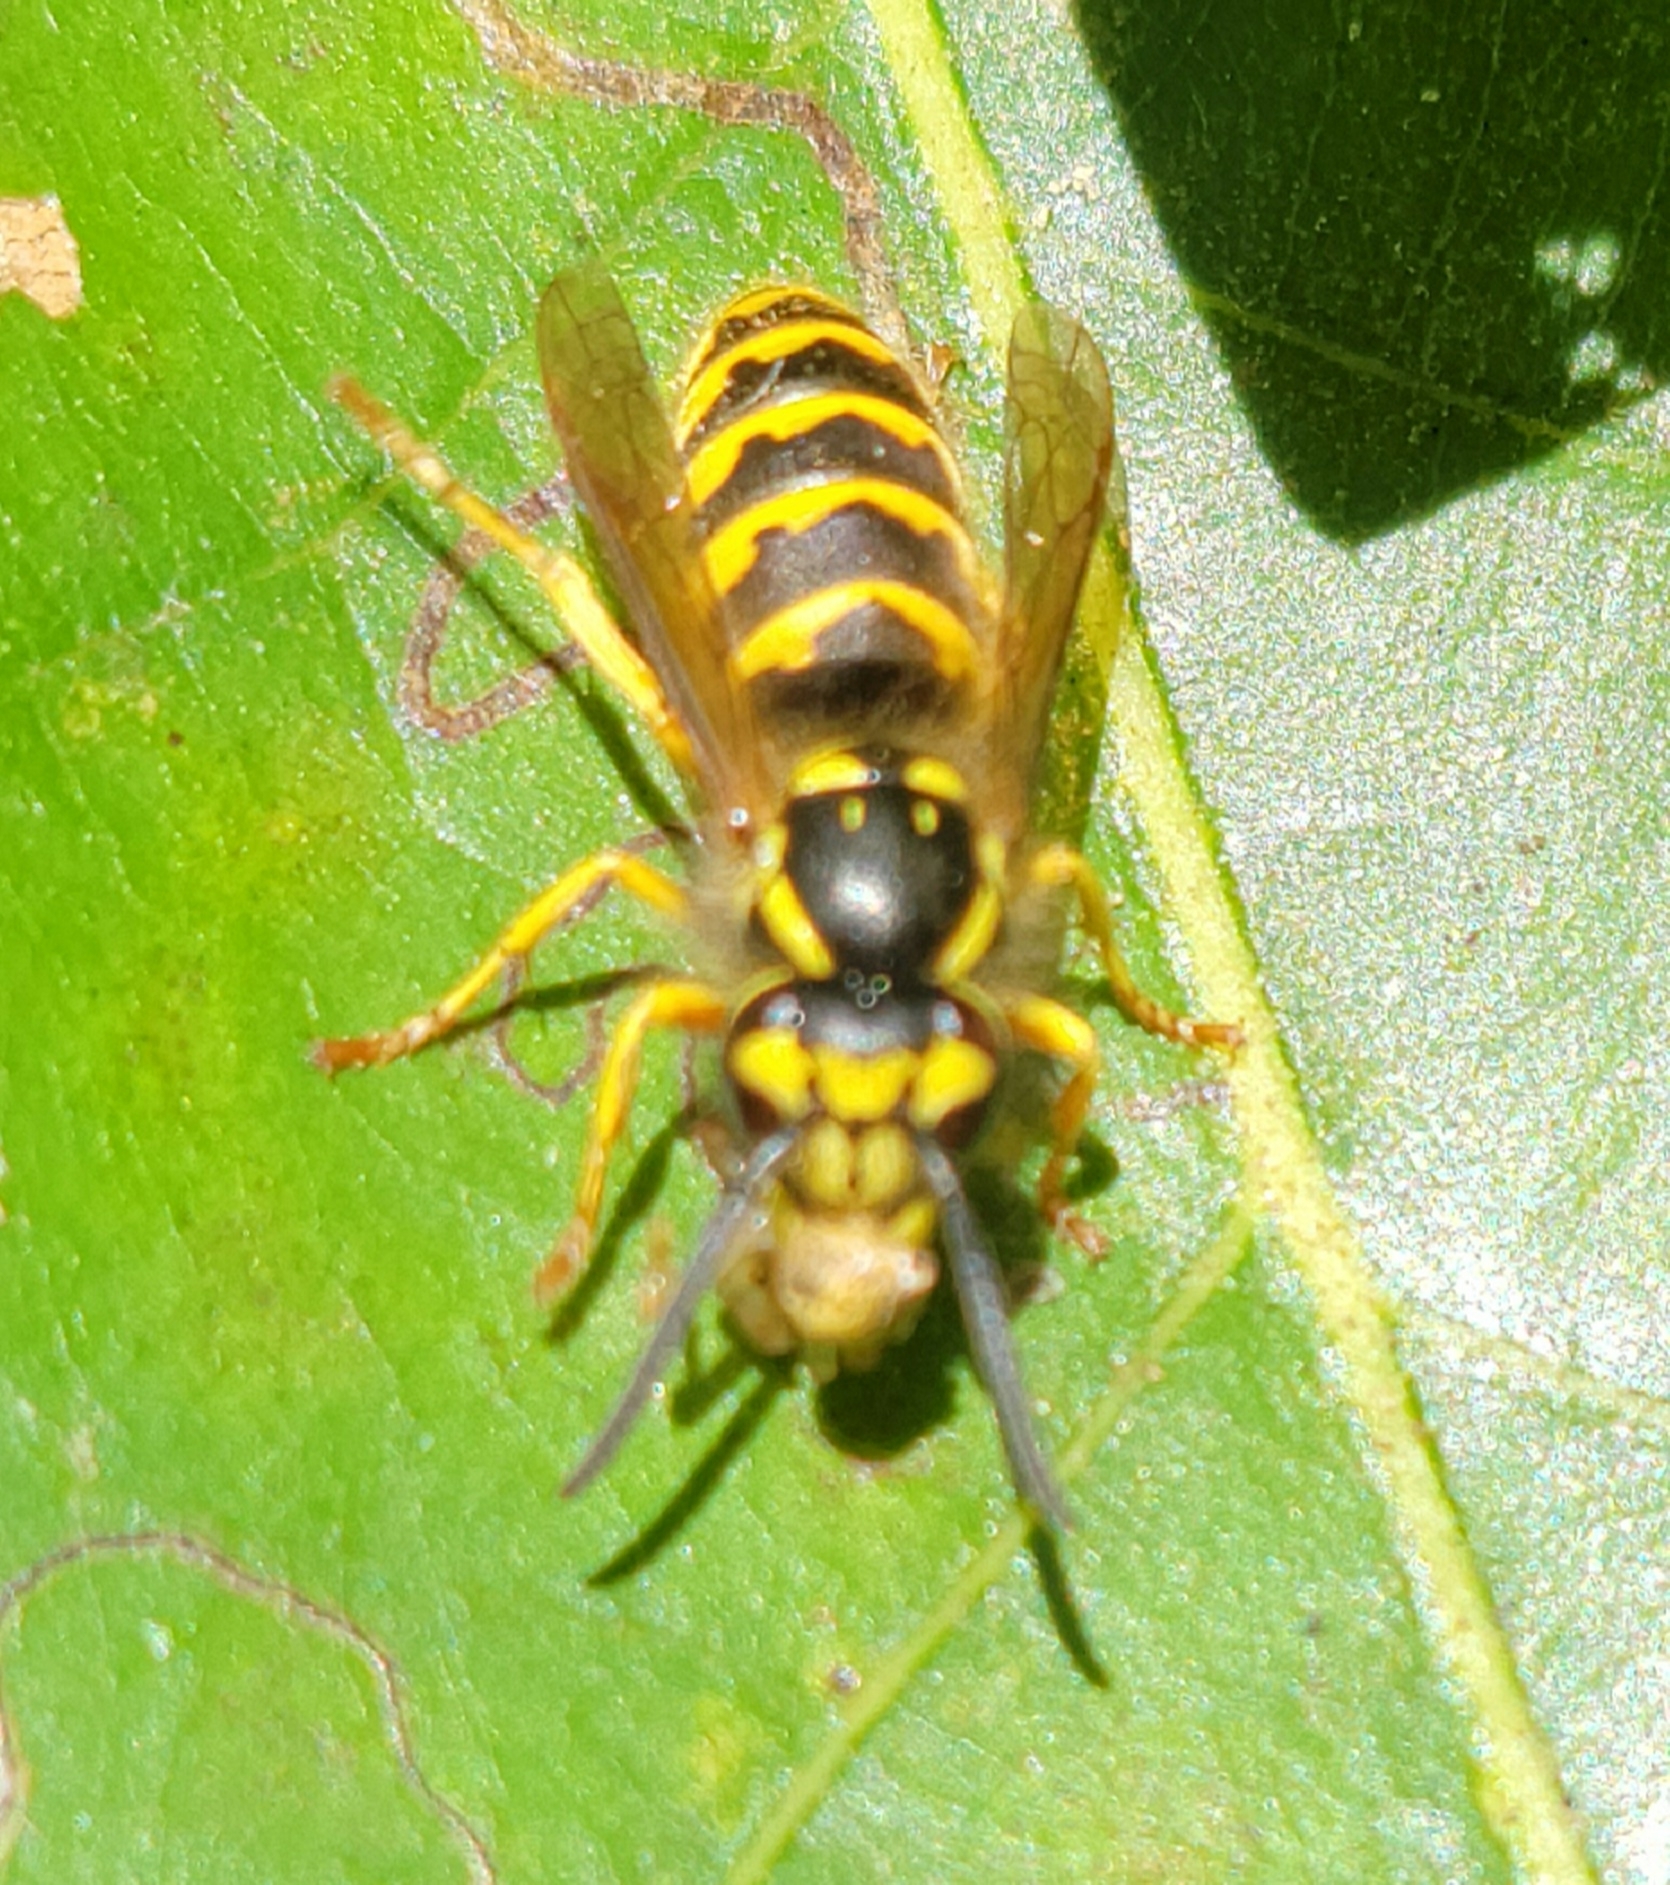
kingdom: Animalia
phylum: Arthropoda
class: Insecta
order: Hymenoptera
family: Vespidae
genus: Vespula
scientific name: Vespula flavopilosa
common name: Downy yellowjacket
